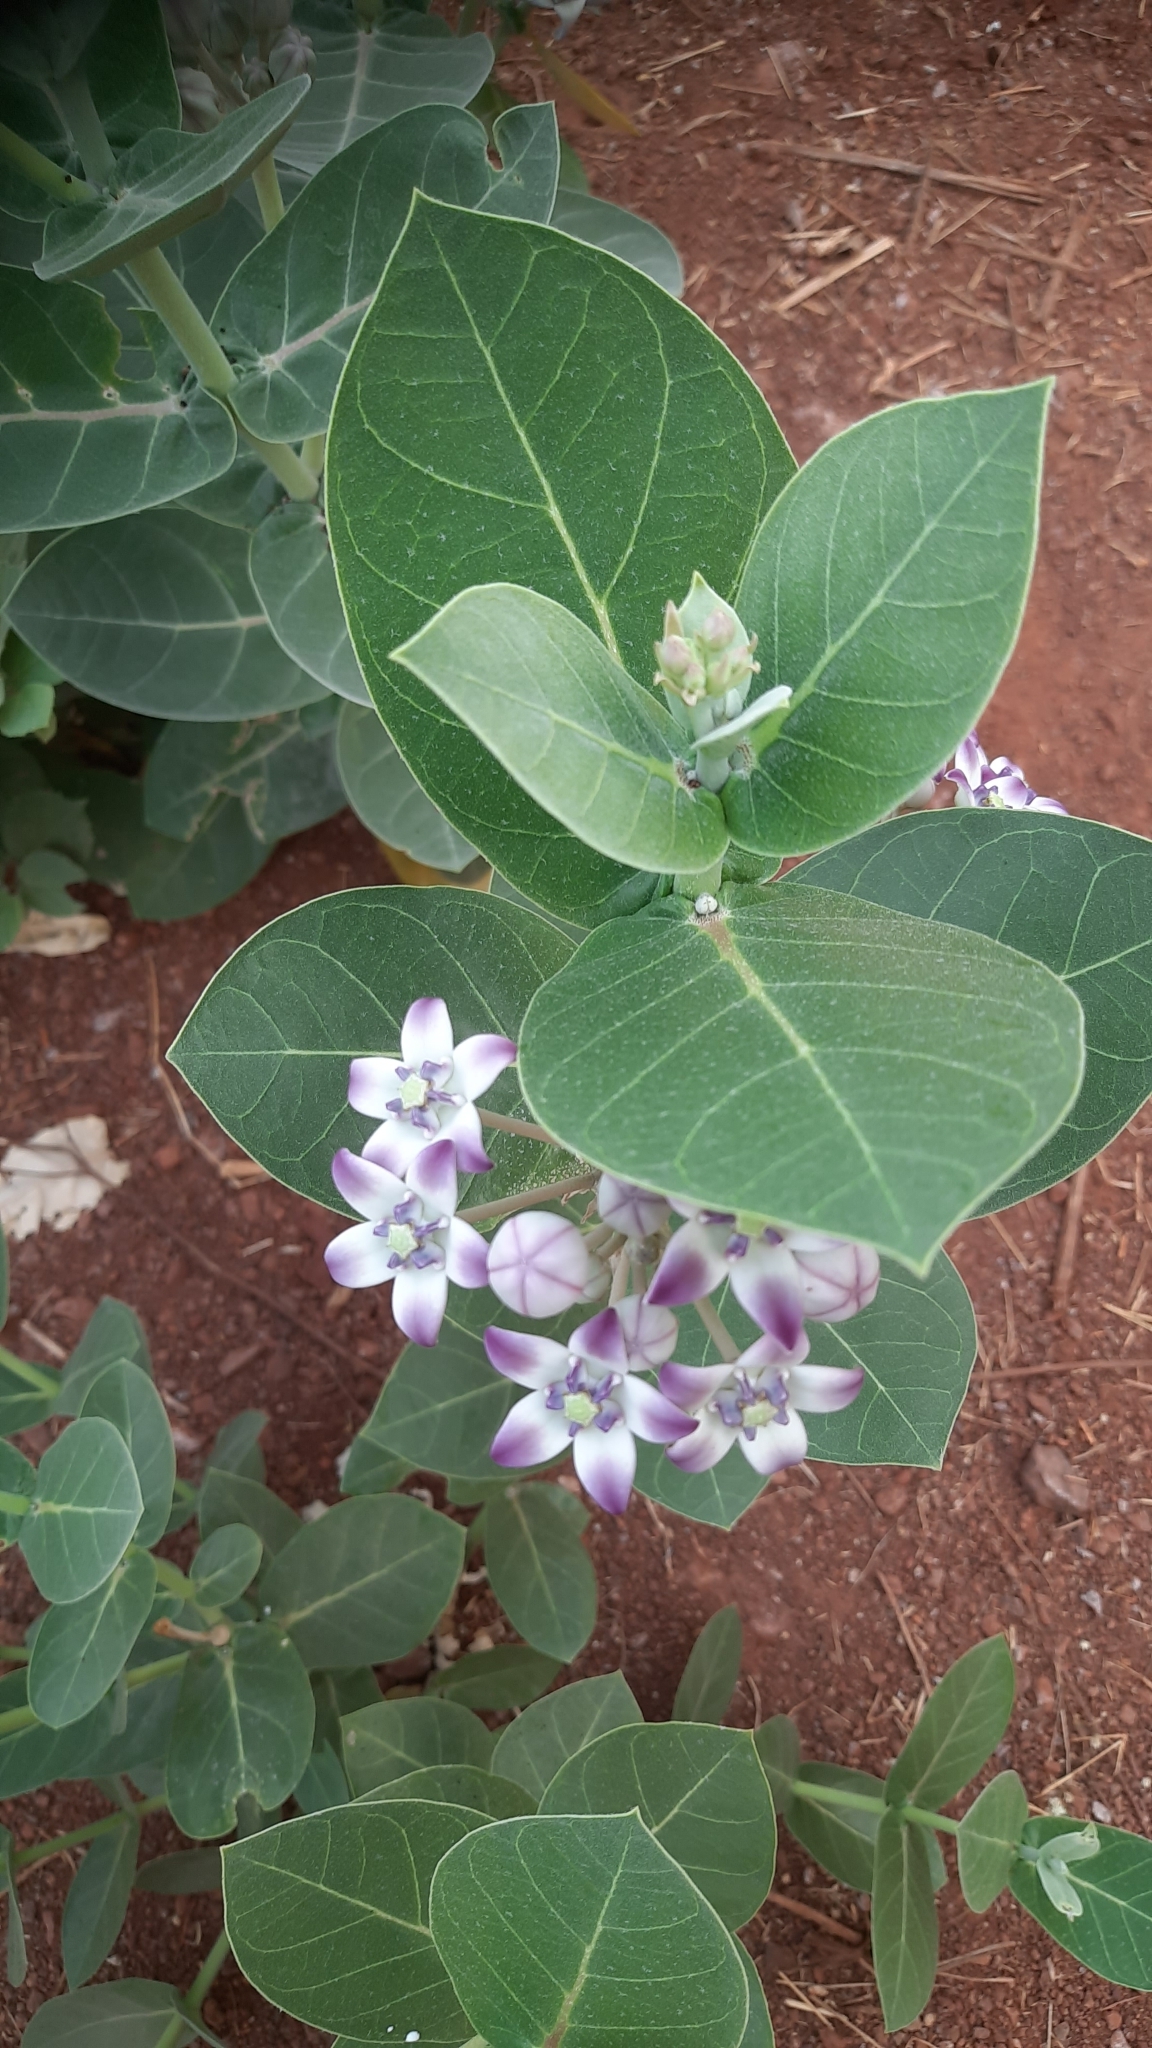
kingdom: Plantae
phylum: Tracheophyta
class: Magnoliopsida
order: Gentianales
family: Apocynaceae
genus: Calotropis
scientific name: Calotropis procera
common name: Roostertree
